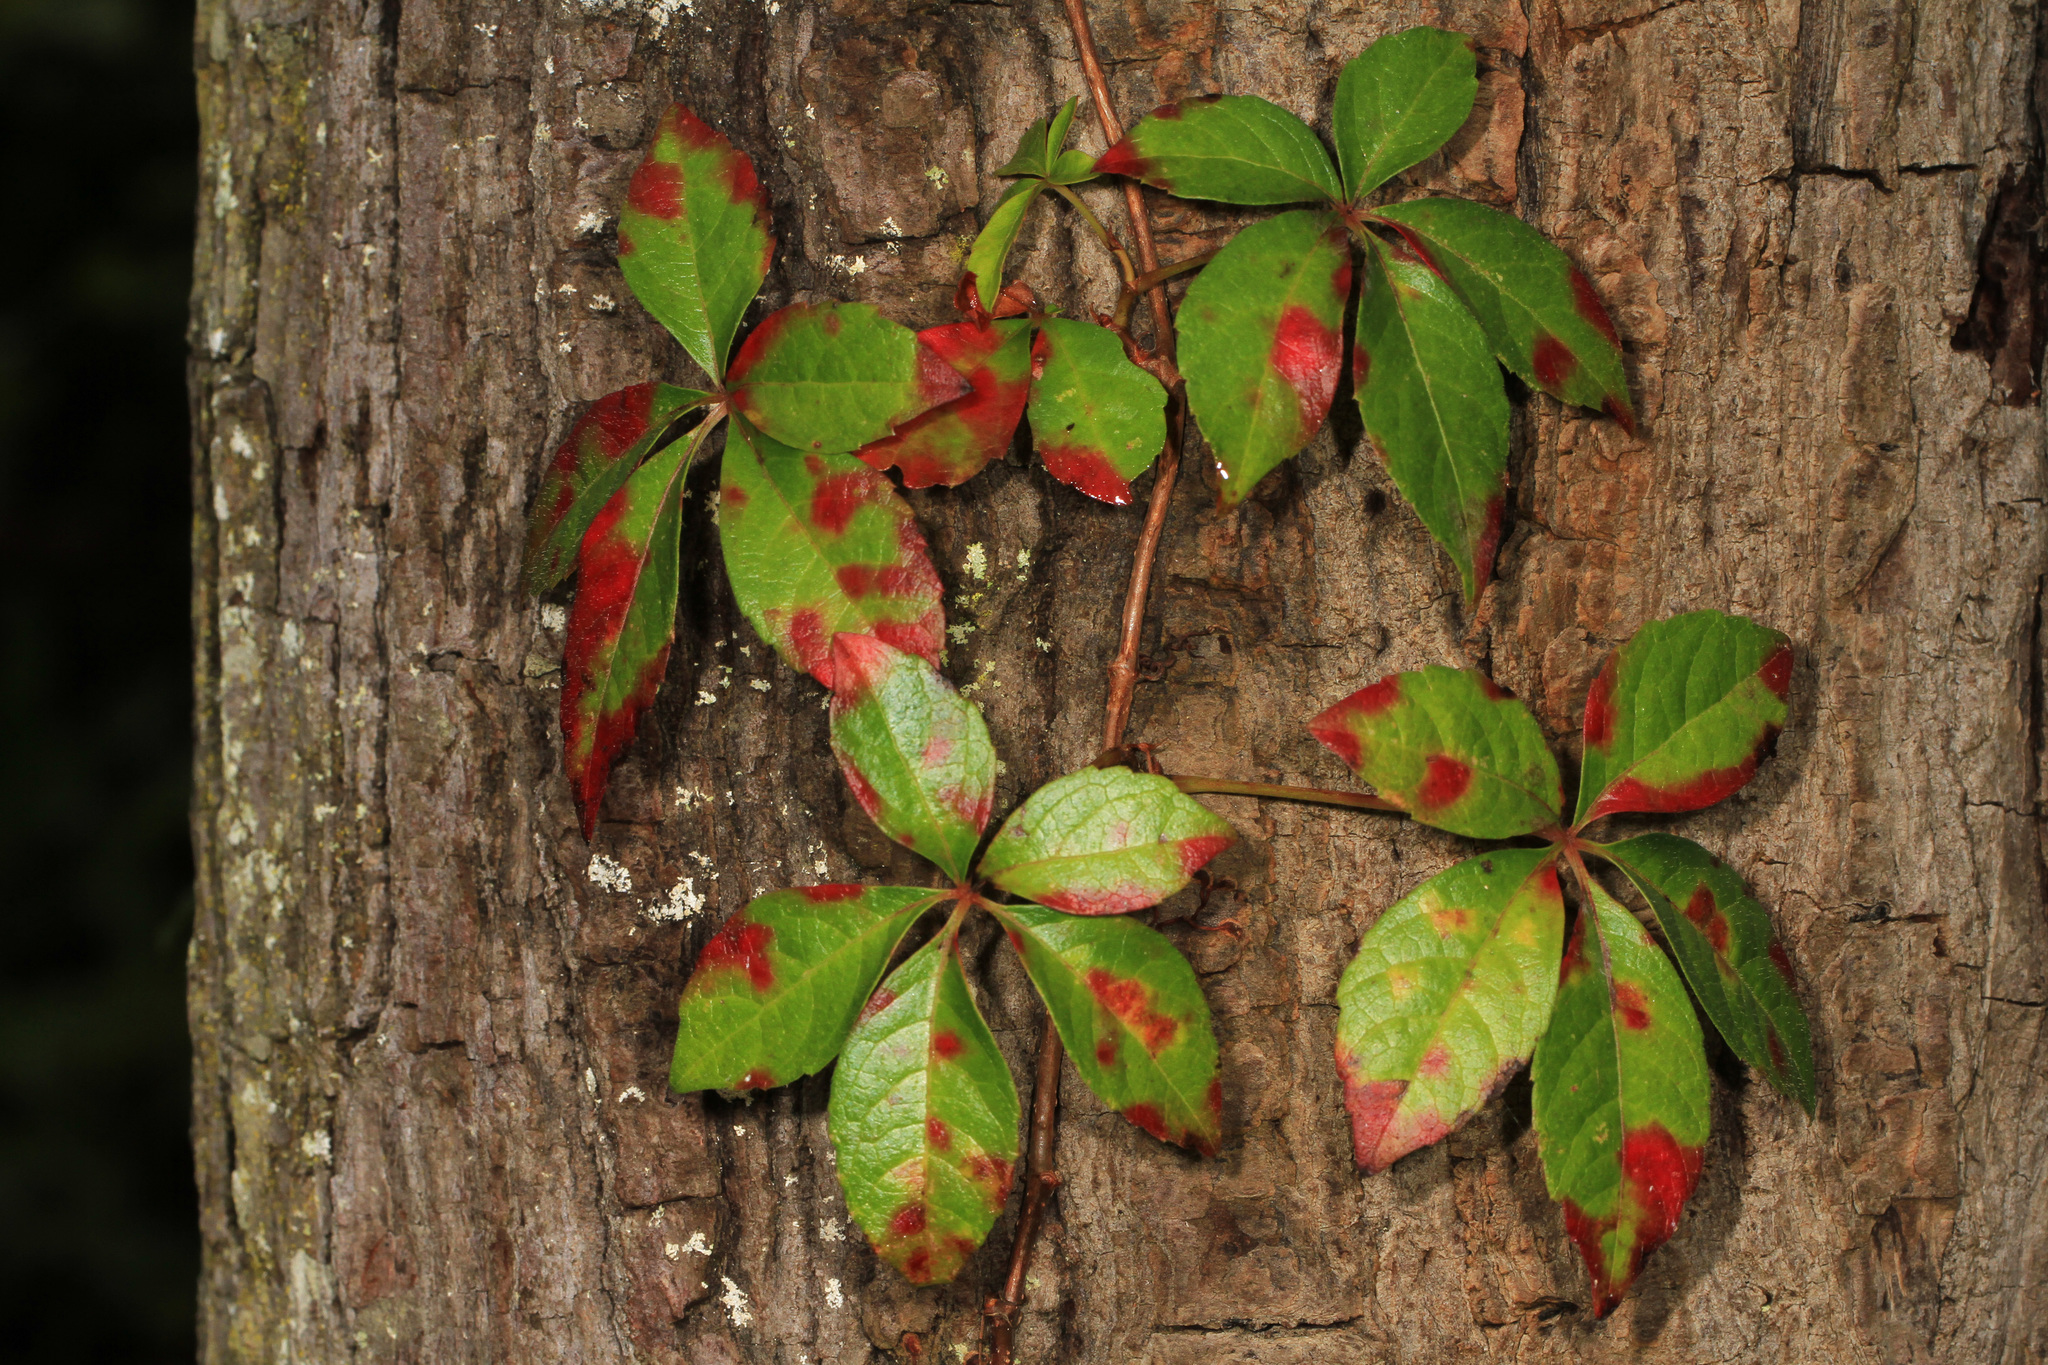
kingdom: Plantae
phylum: Tracheophyta
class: Magnoliopsida
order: Vitales
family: Vitaceae
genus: Parthenocissus
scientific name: Parthenocissus quinquefolia
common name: Virginia-creeper
